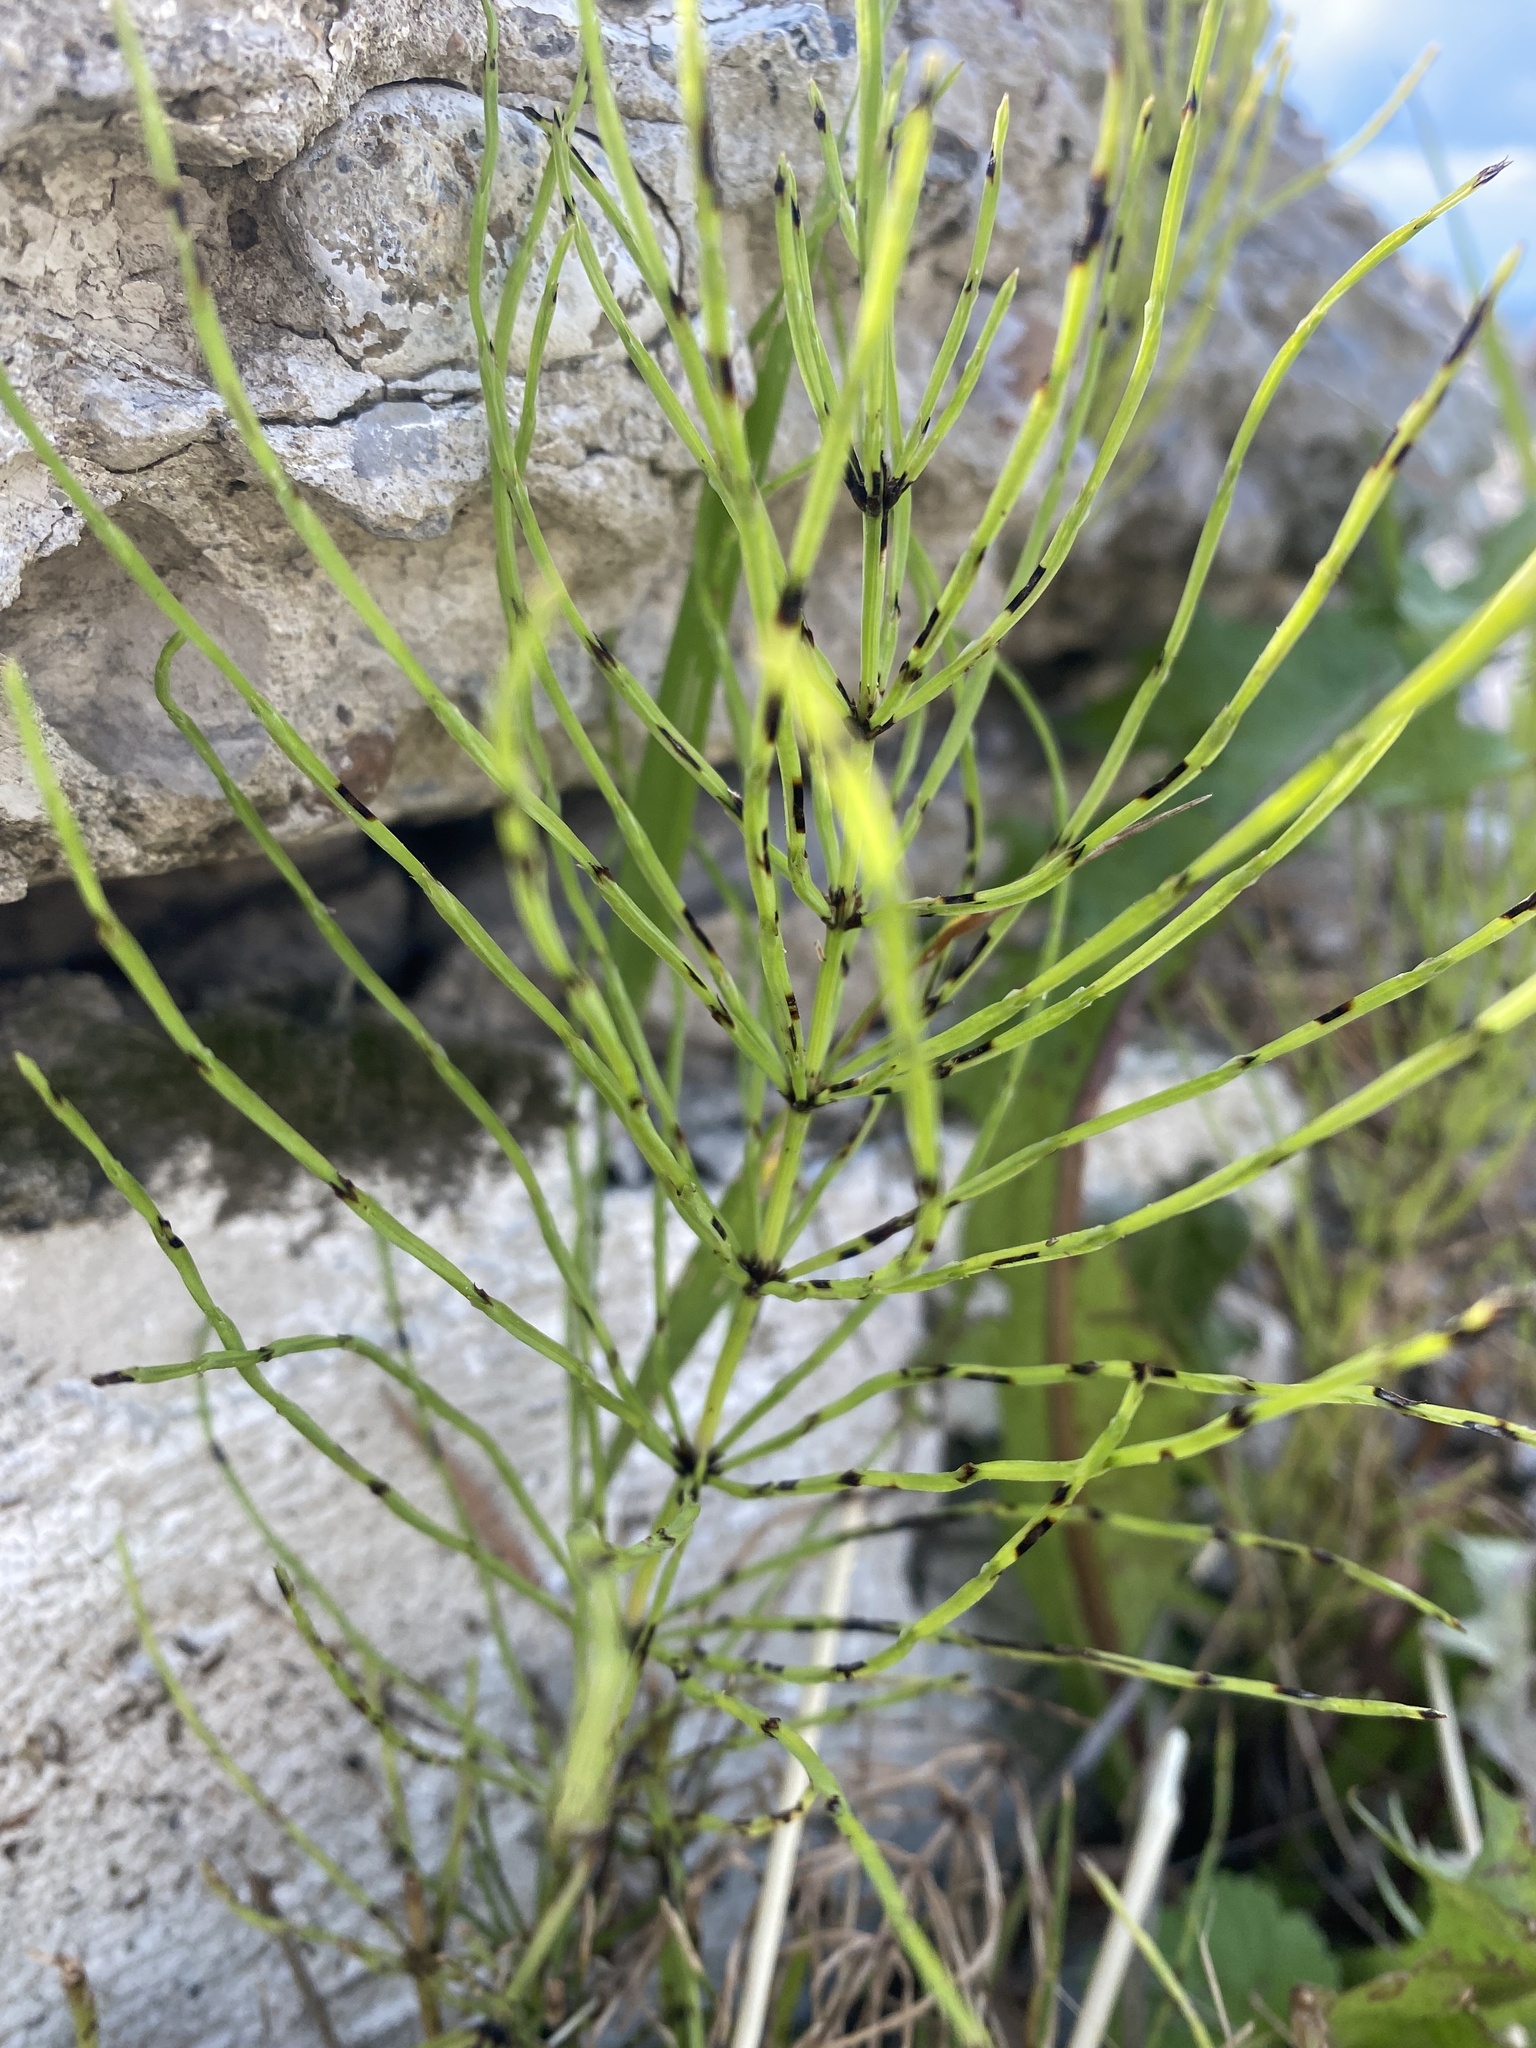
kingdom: Plantae
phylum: Tracheophyta
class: Polypodiopsida
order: Equisetales
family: Equisetaceae
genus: Equisetum
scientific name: Equisetum arvense
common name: Field horsetail
